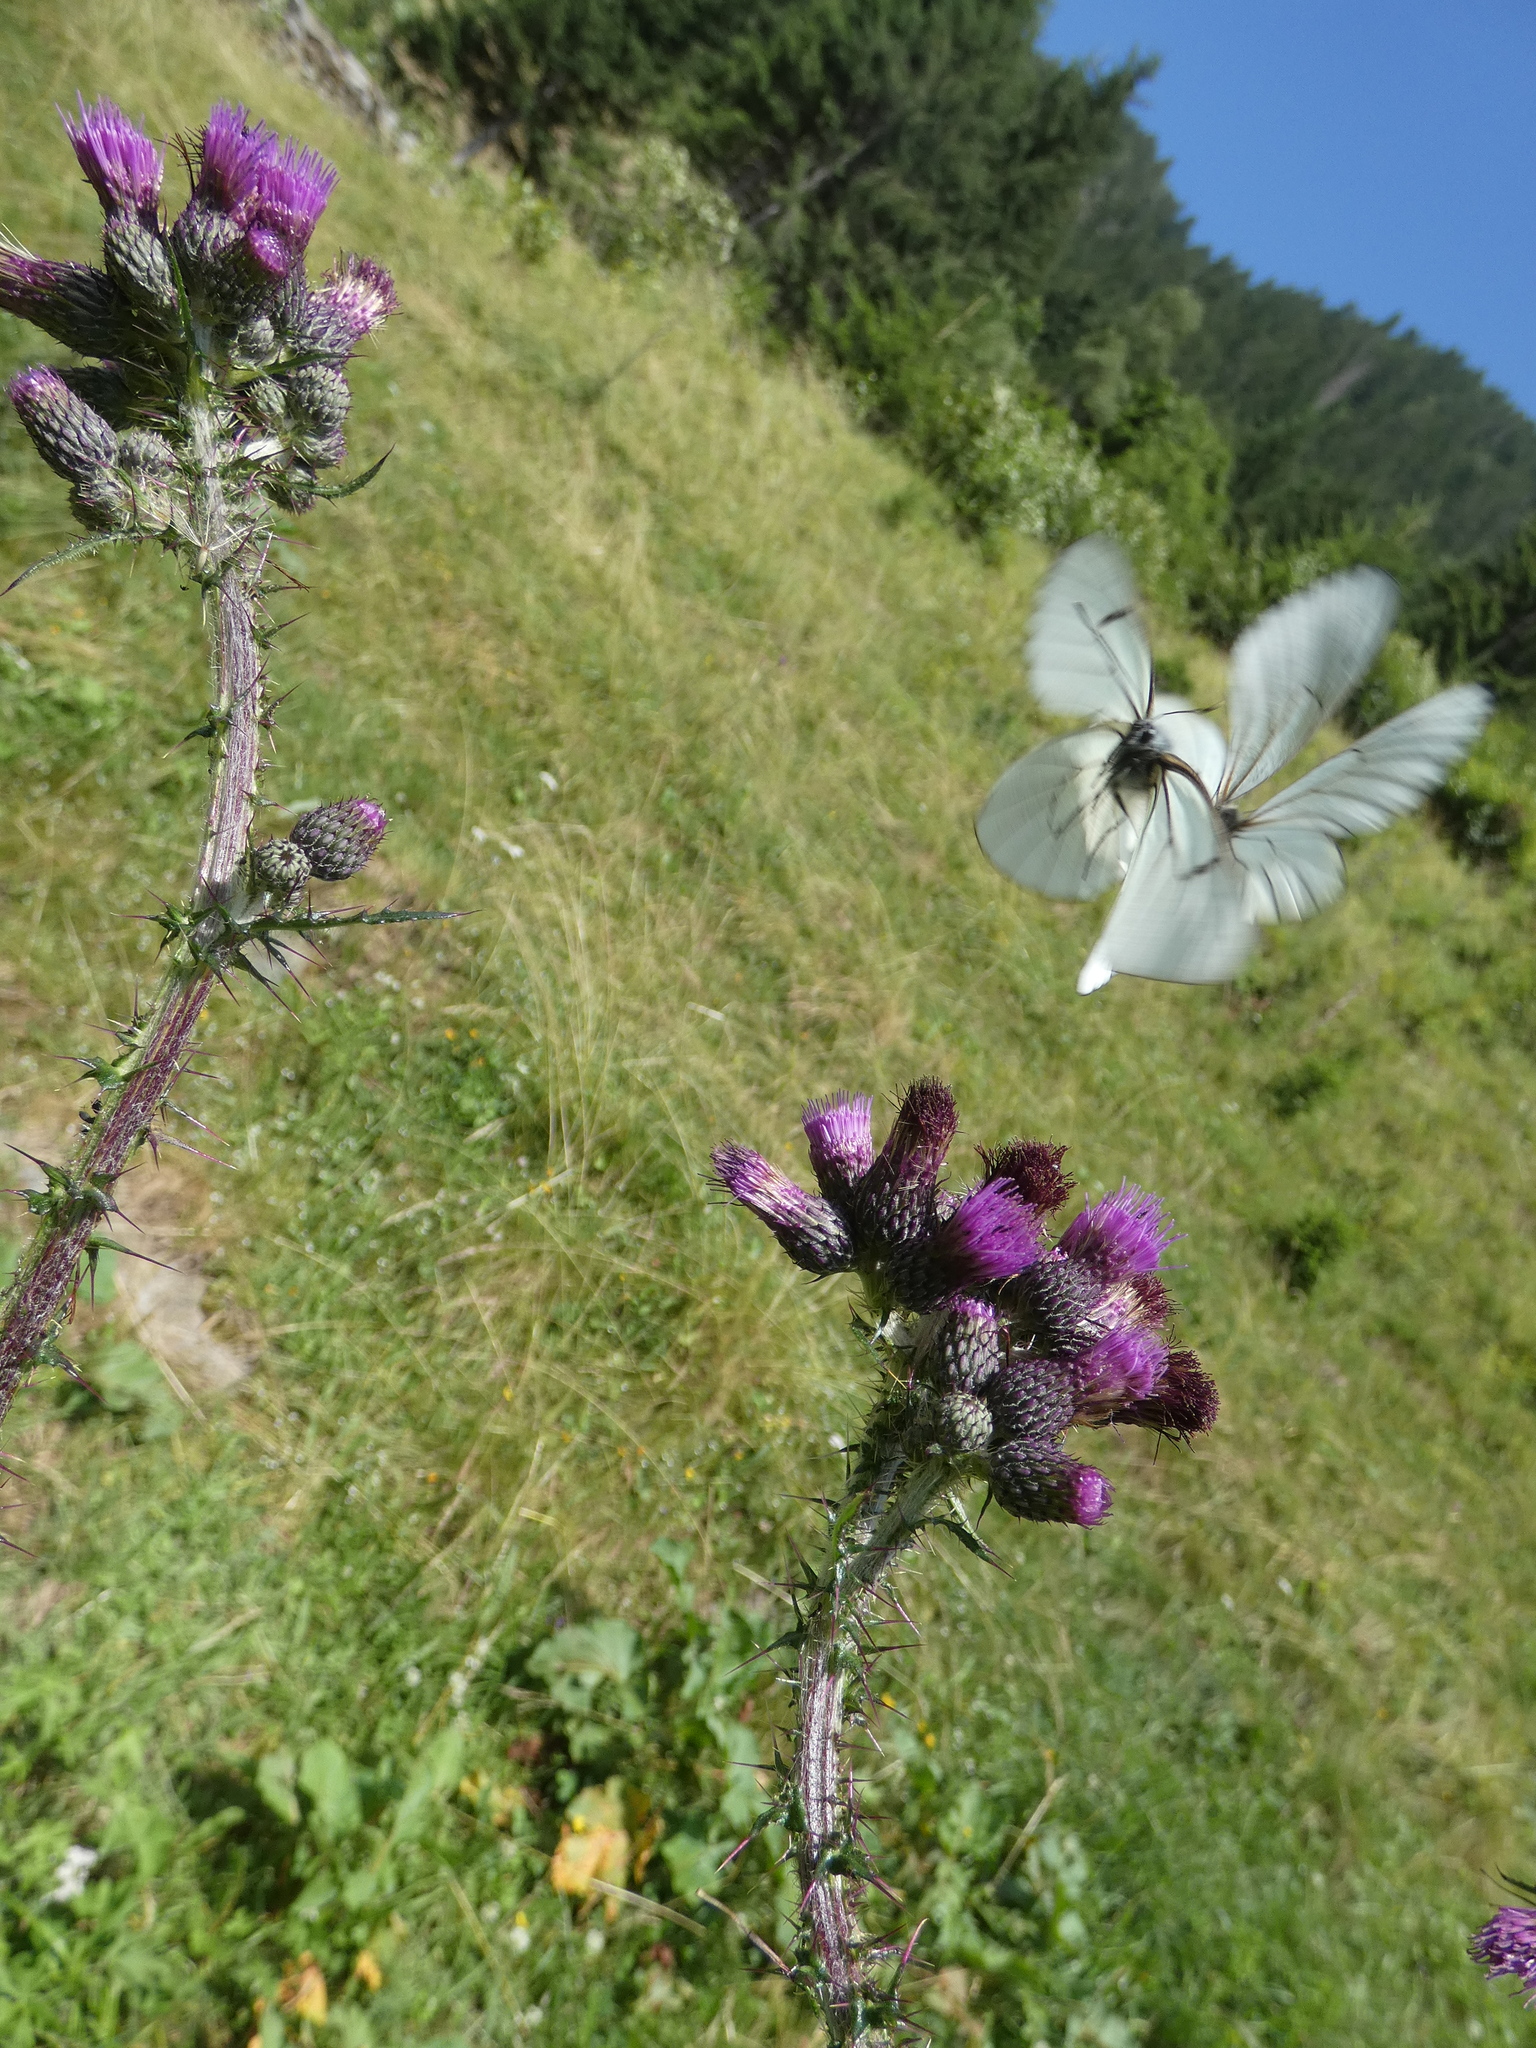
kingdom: Animalia
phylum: Arthropoda
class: Insecta
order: Lepidoptera
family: Pieridae
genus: Aporia
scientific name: Aporia crataegi
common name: Black-veined white
